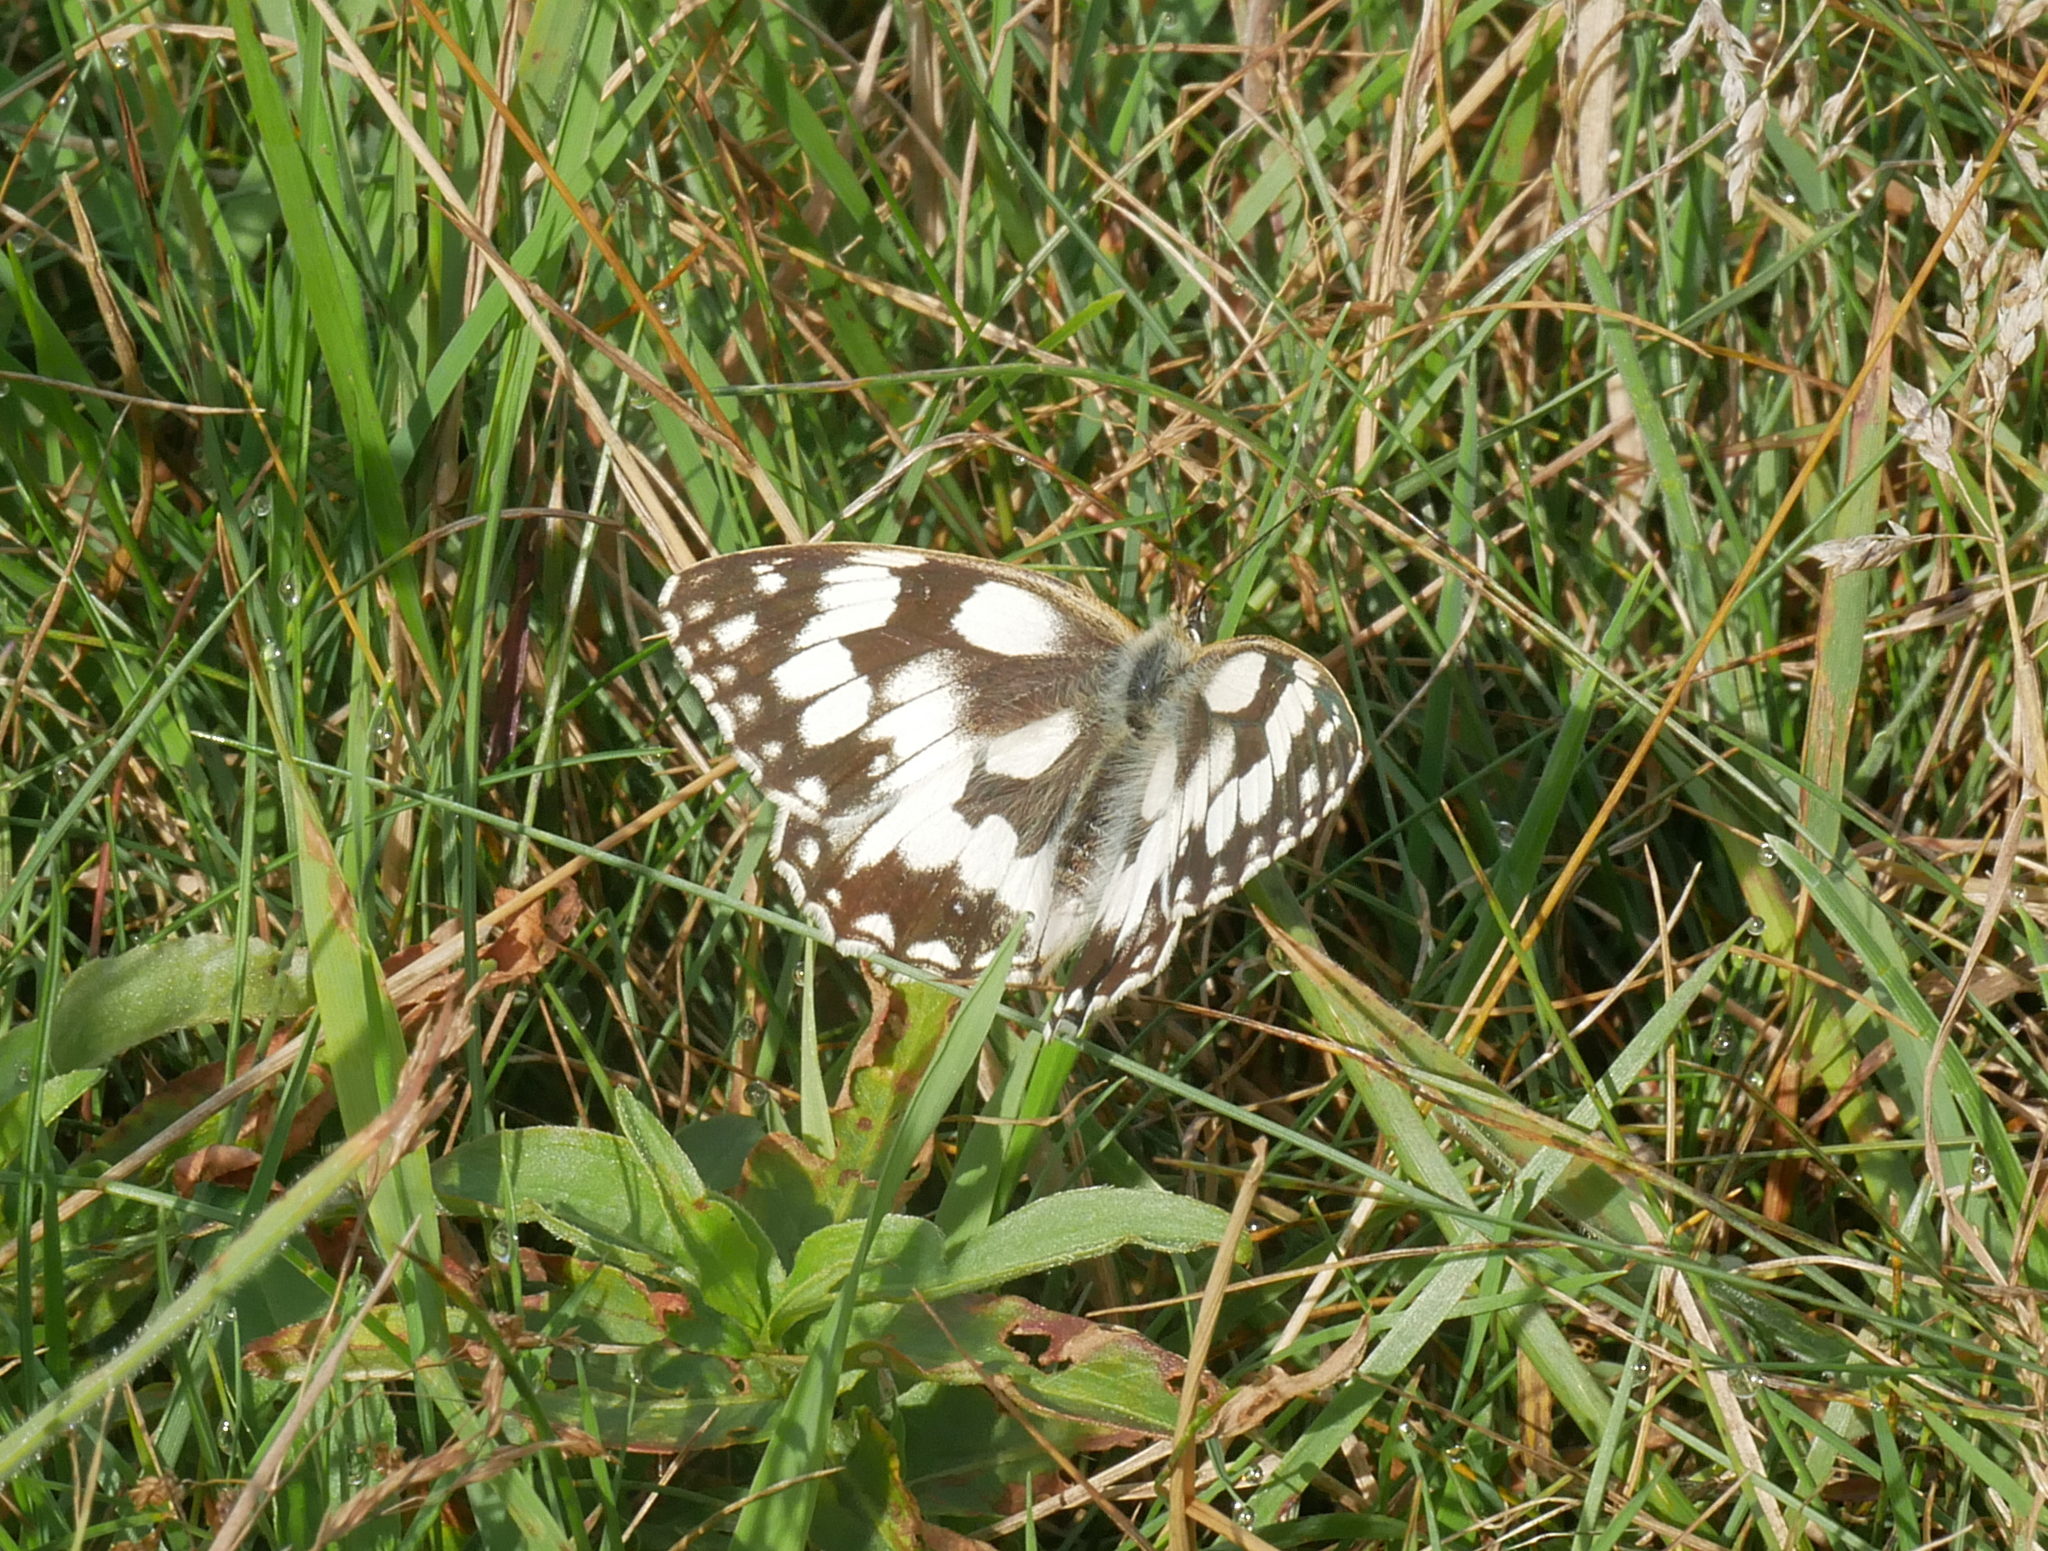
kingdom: Animalia
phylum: Arthropoda
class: Insecta
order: Lepidoptera
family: Nymphalidae
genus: Melanargia
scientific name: Melanargia galathea
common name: Marbled white
